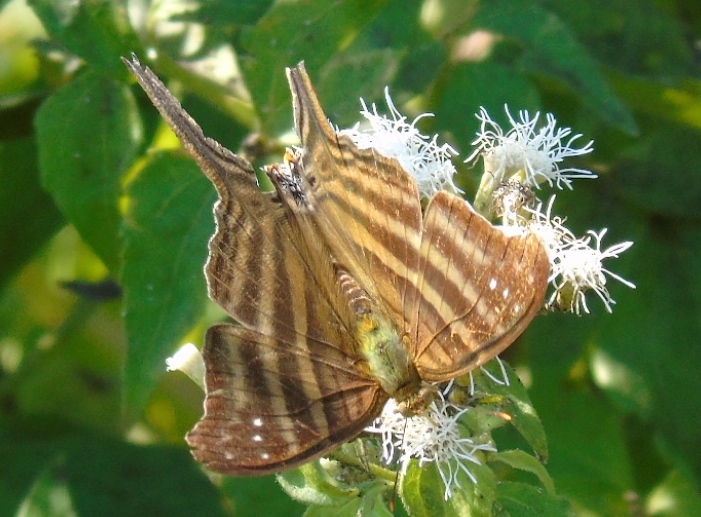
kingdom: Animalia
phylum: Arthropoda
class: Insecta
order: Lepidoptera
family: Nymphalidae
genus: Marpesia
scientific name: Marpesia chiron
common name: Many-banded daggerwing
